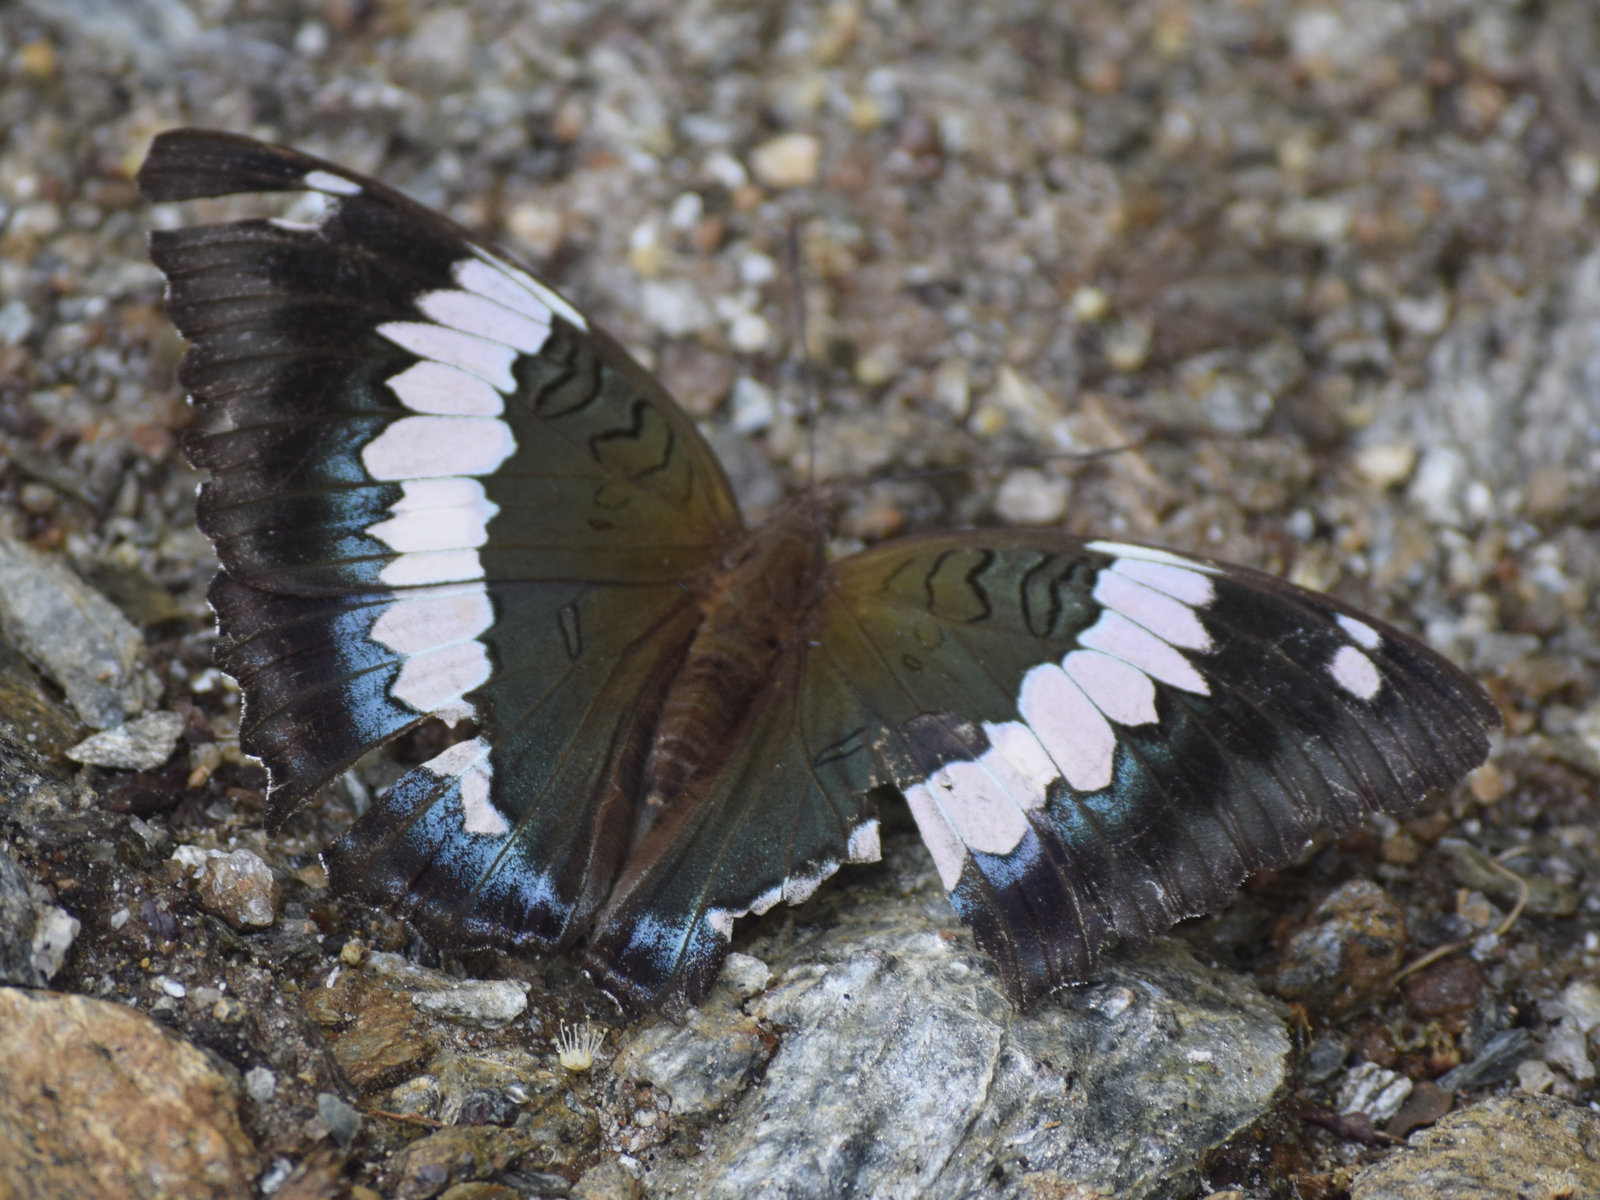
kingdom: Animalia
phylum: Arthropoda
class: Insecta
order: Lepidoptera
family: Nymphalidae
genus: Euthalia
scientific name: Euthalia durga
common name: Blue duke
